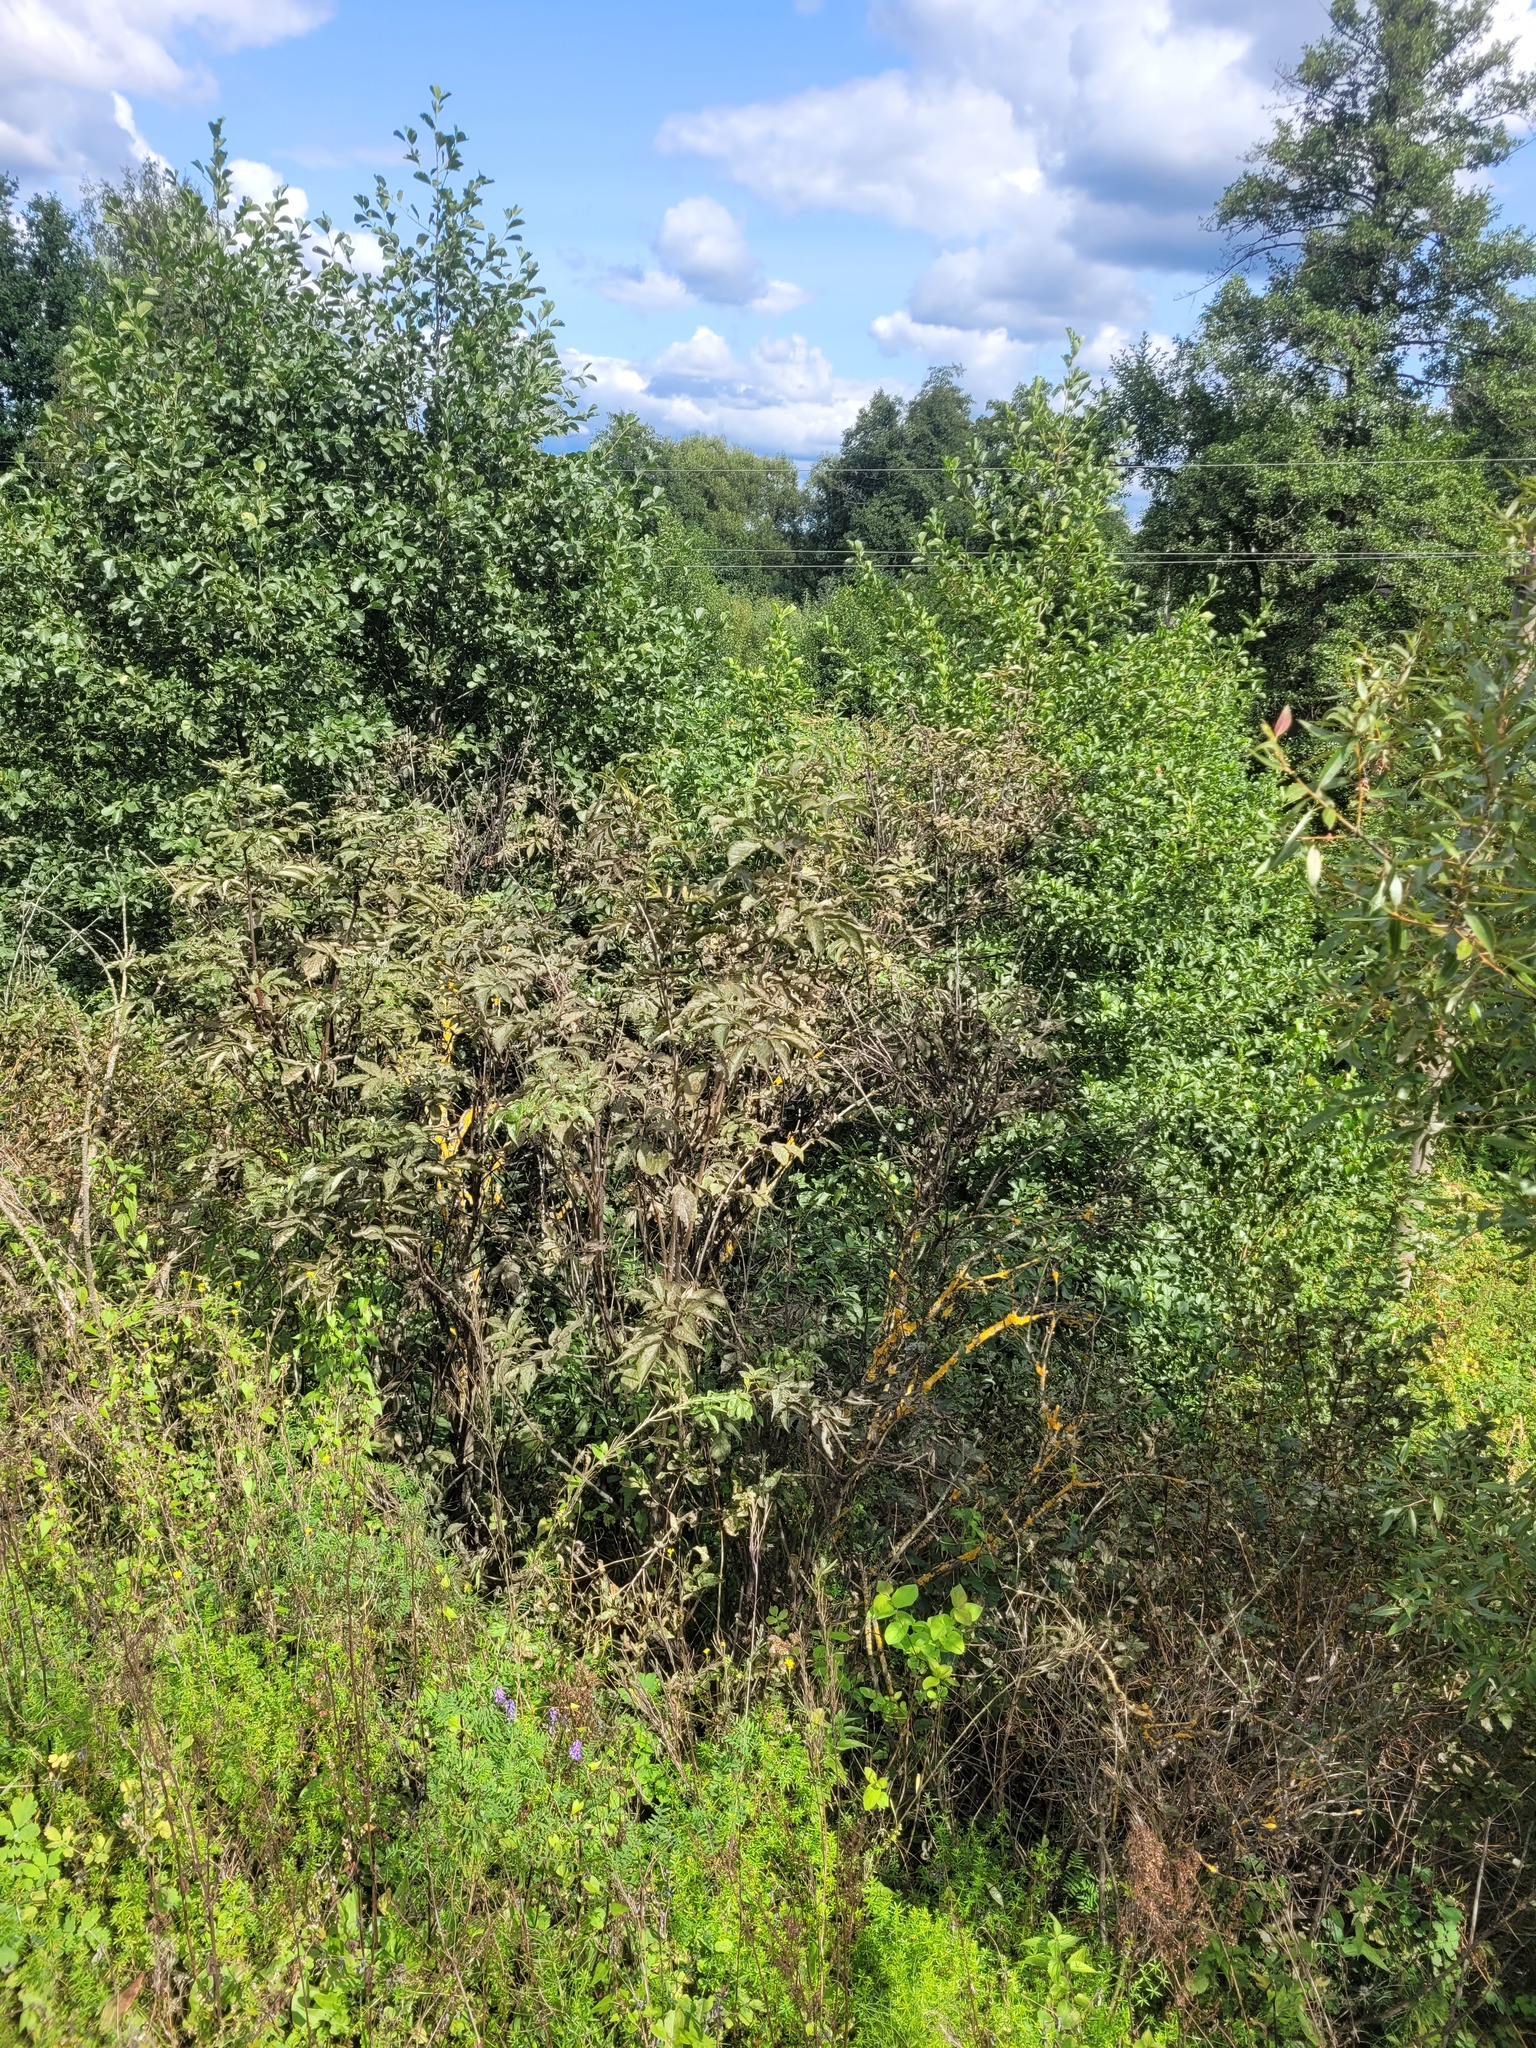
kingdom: Plantae
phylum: Tracheophyta
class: Magnoliopsida
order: Dipsacales
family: Viburnaceae
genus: Sambucus
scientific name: Sambucus racemosa
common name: Red-berried elder
